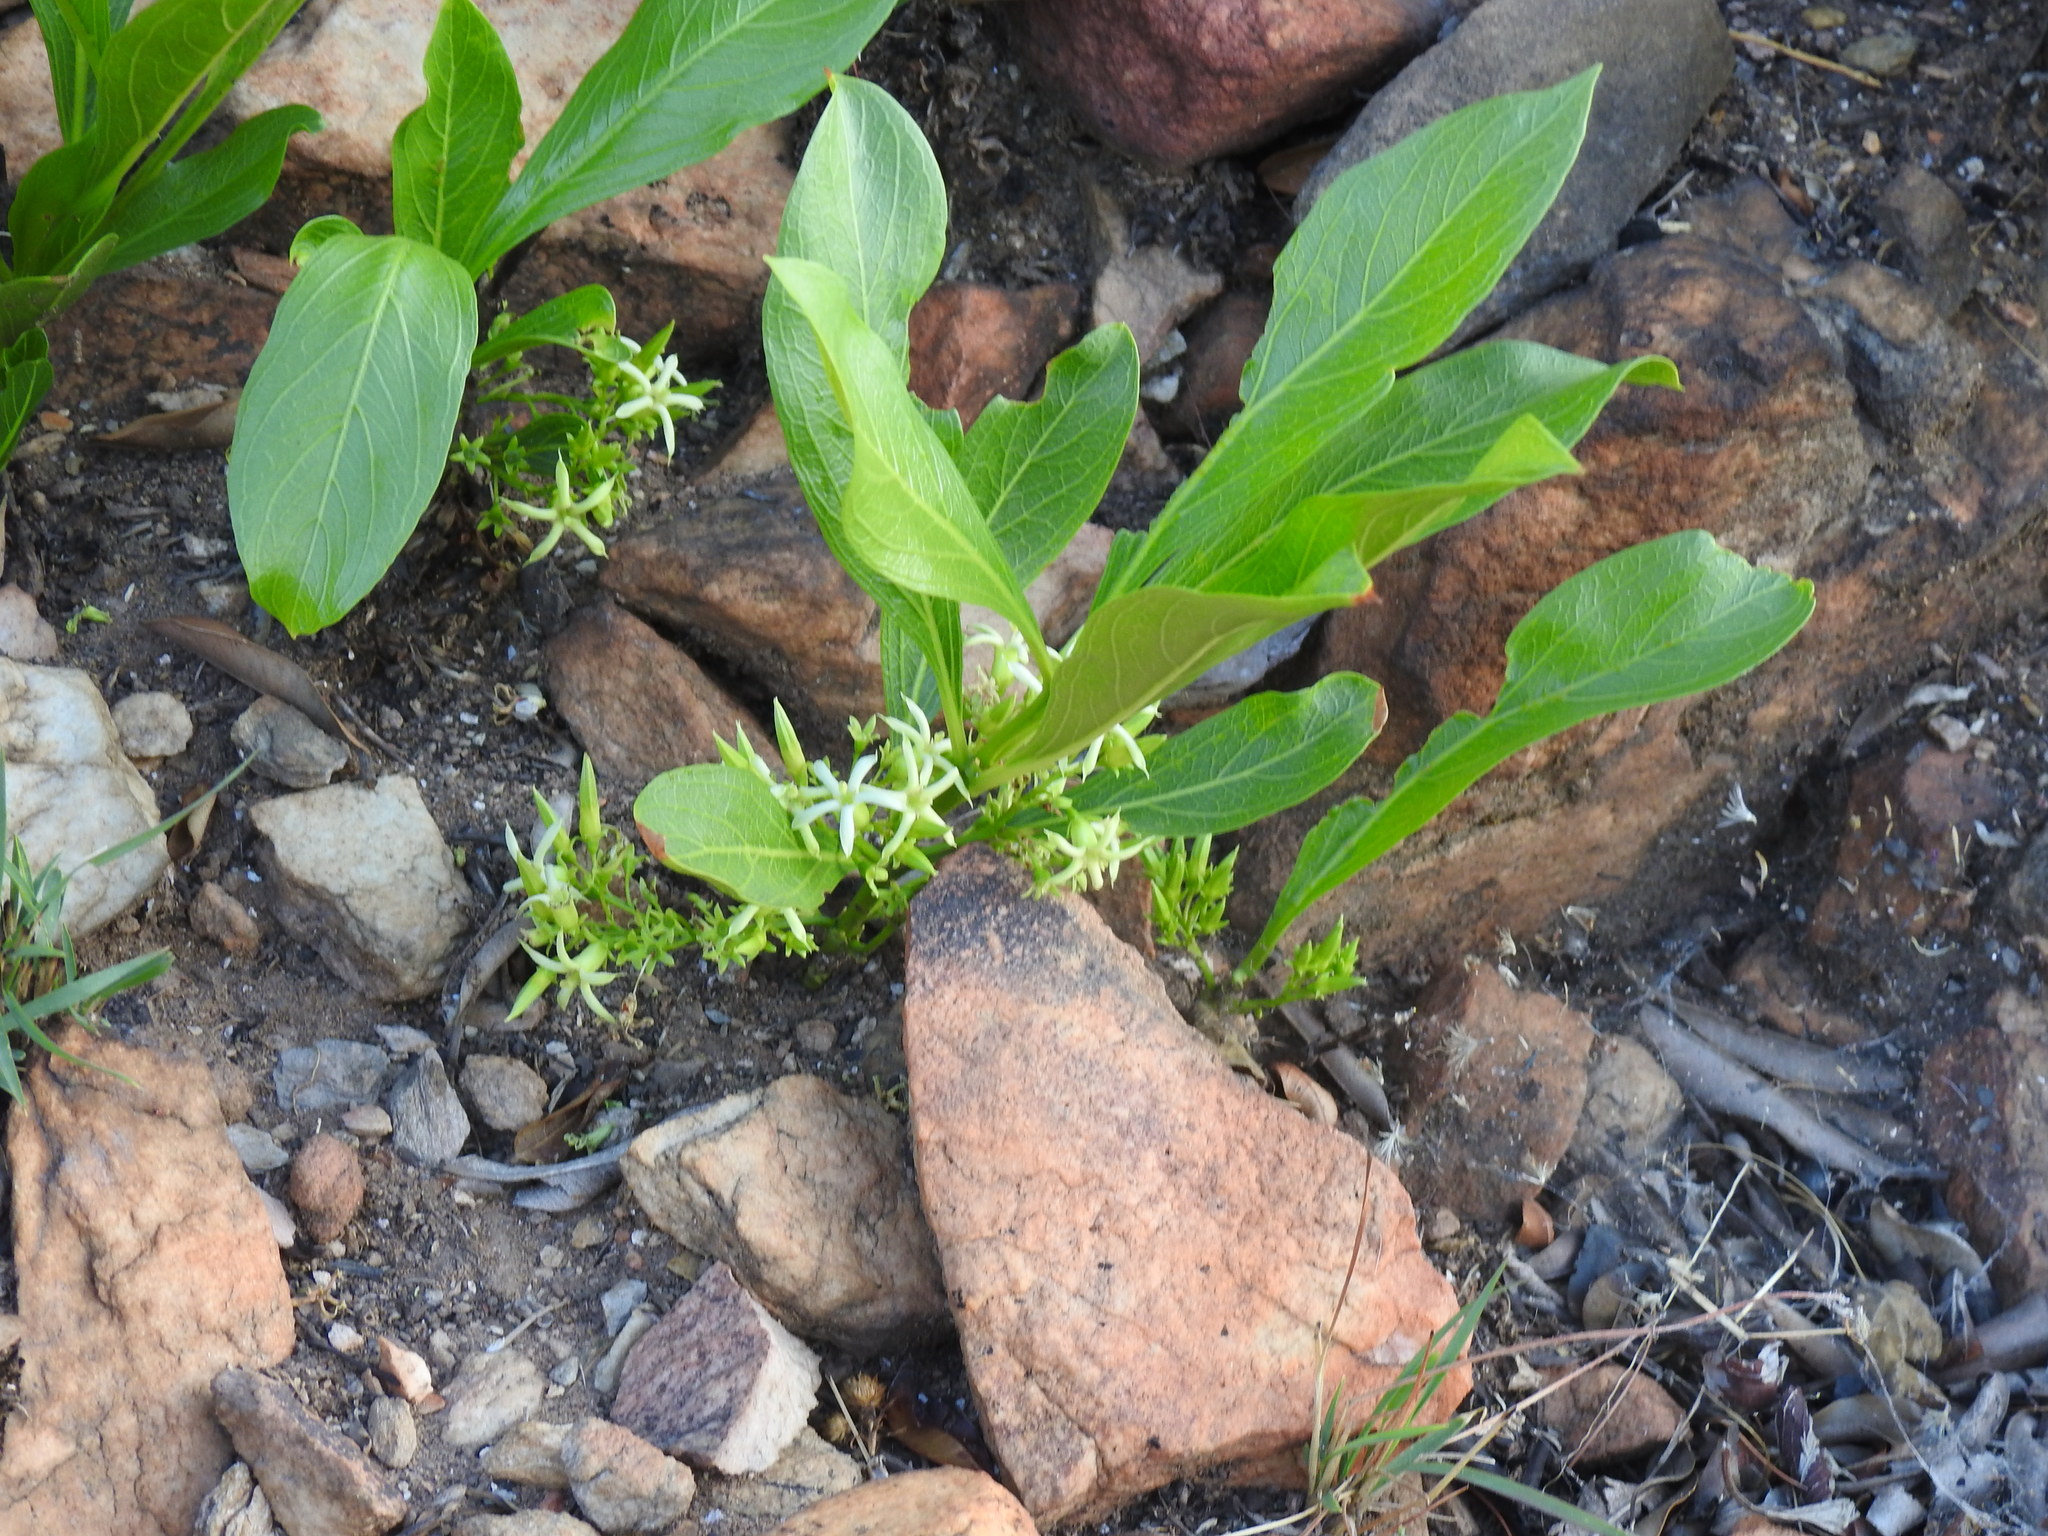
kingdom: Plantae
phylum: Tracheophyta
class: Magnoliopsida
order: Gentianales
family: Rubiaceae
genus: Pygmaeothamnus
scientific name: Pygmaeothamnus zeyheri
